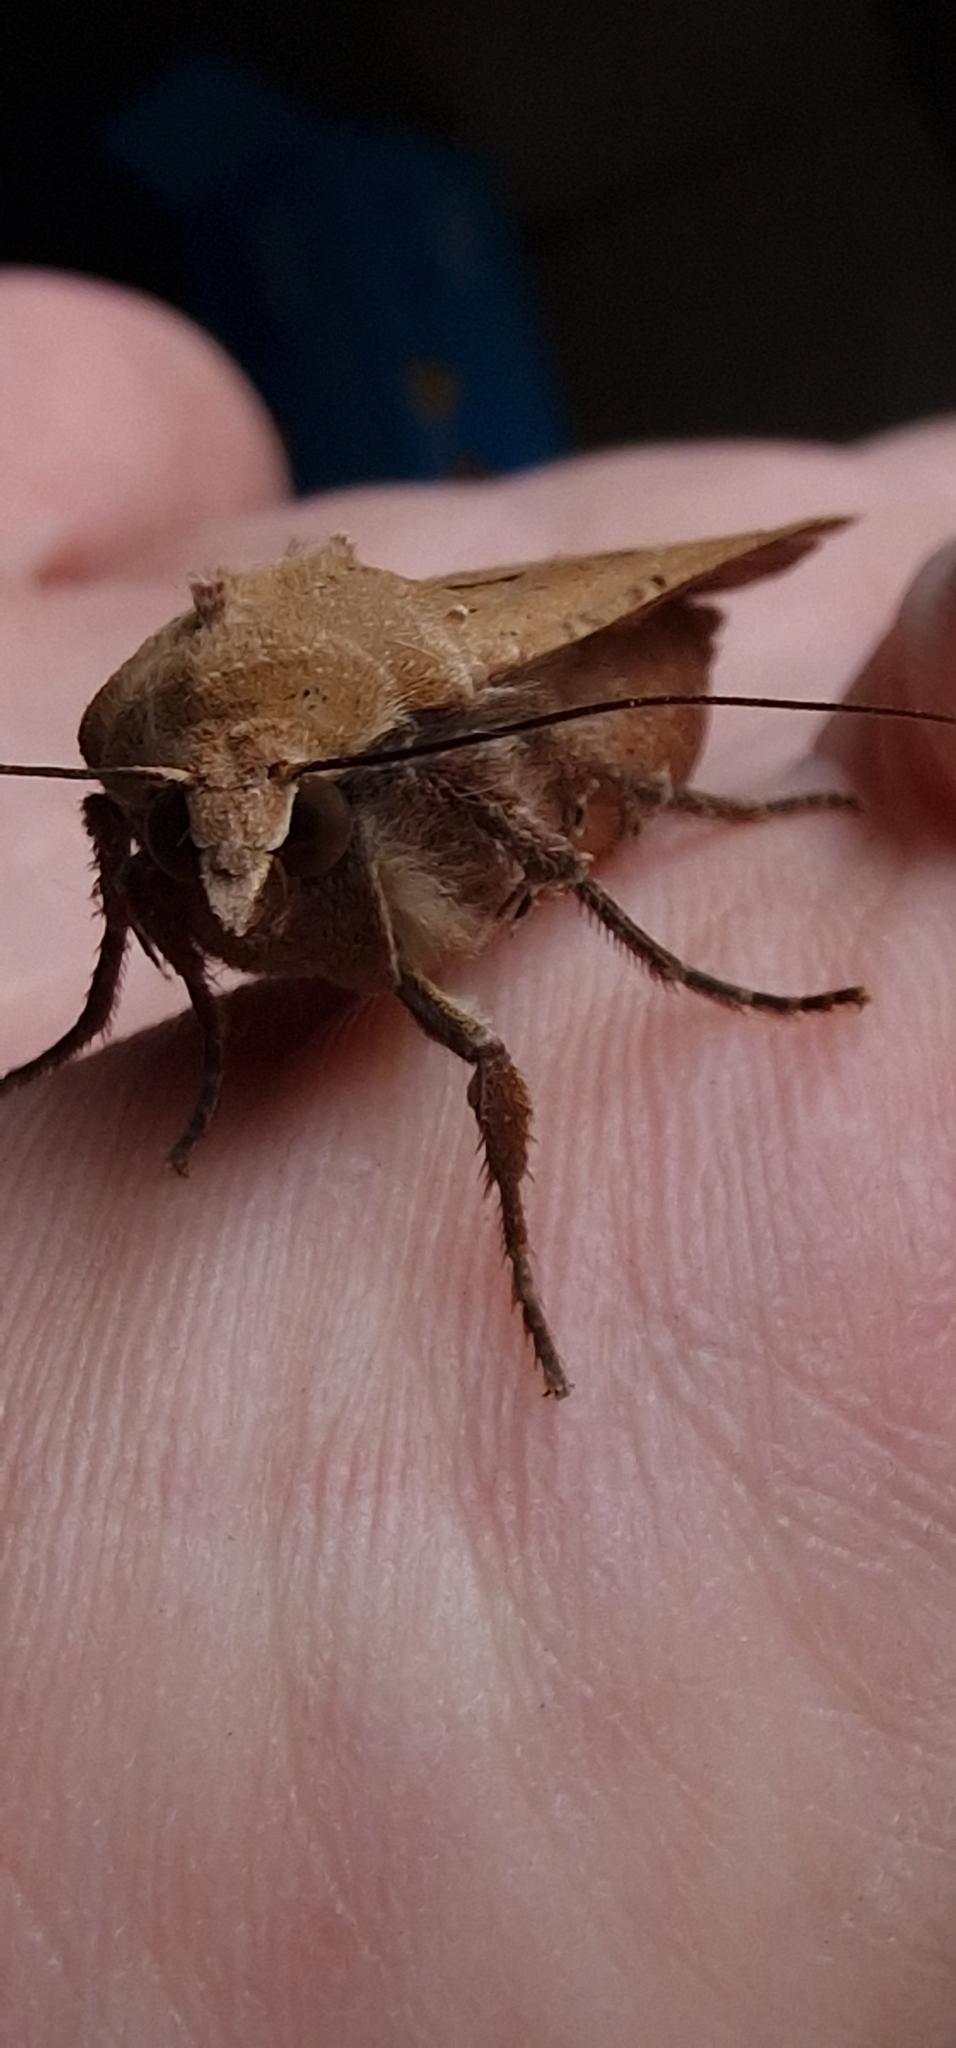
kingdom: Animalia
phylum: Arthropoda
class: Insecta
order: Lepidoptera
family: Noctuidae
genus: Noctua
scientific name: Noctua pronuba
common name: Large yellow underwing
